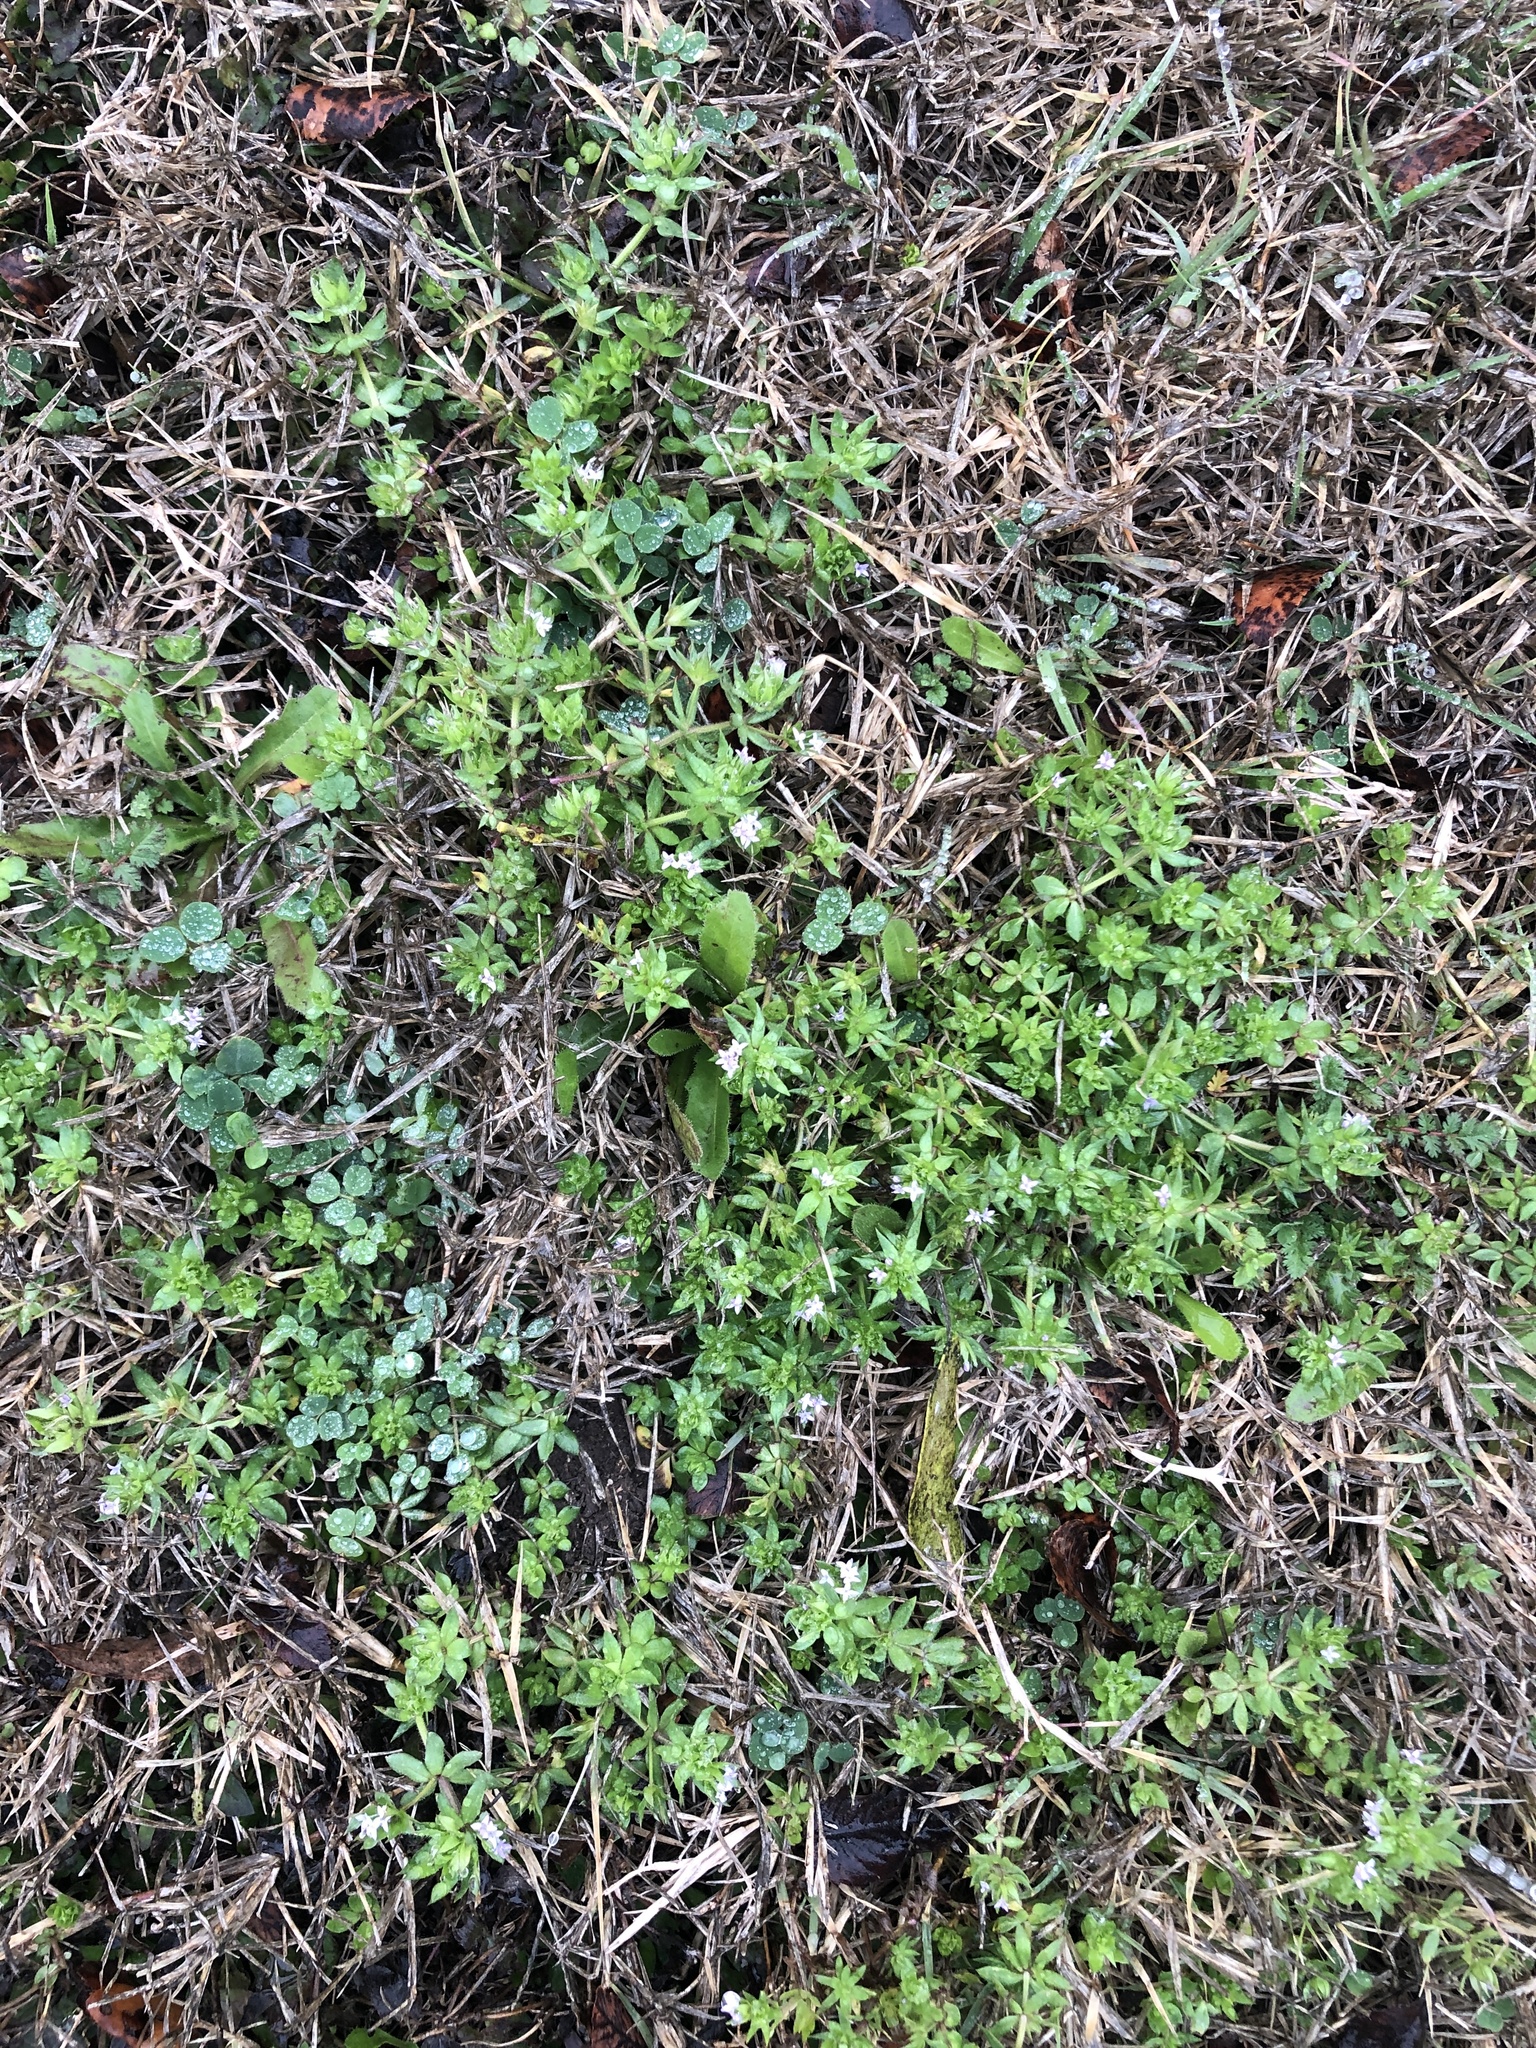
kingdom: Plantae
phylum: Tracheophyta
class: Magnoliopsida
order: Gentianales
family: Rubiaceae
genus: Sherardia
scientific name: Sherardia arvensis
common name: Field madder
